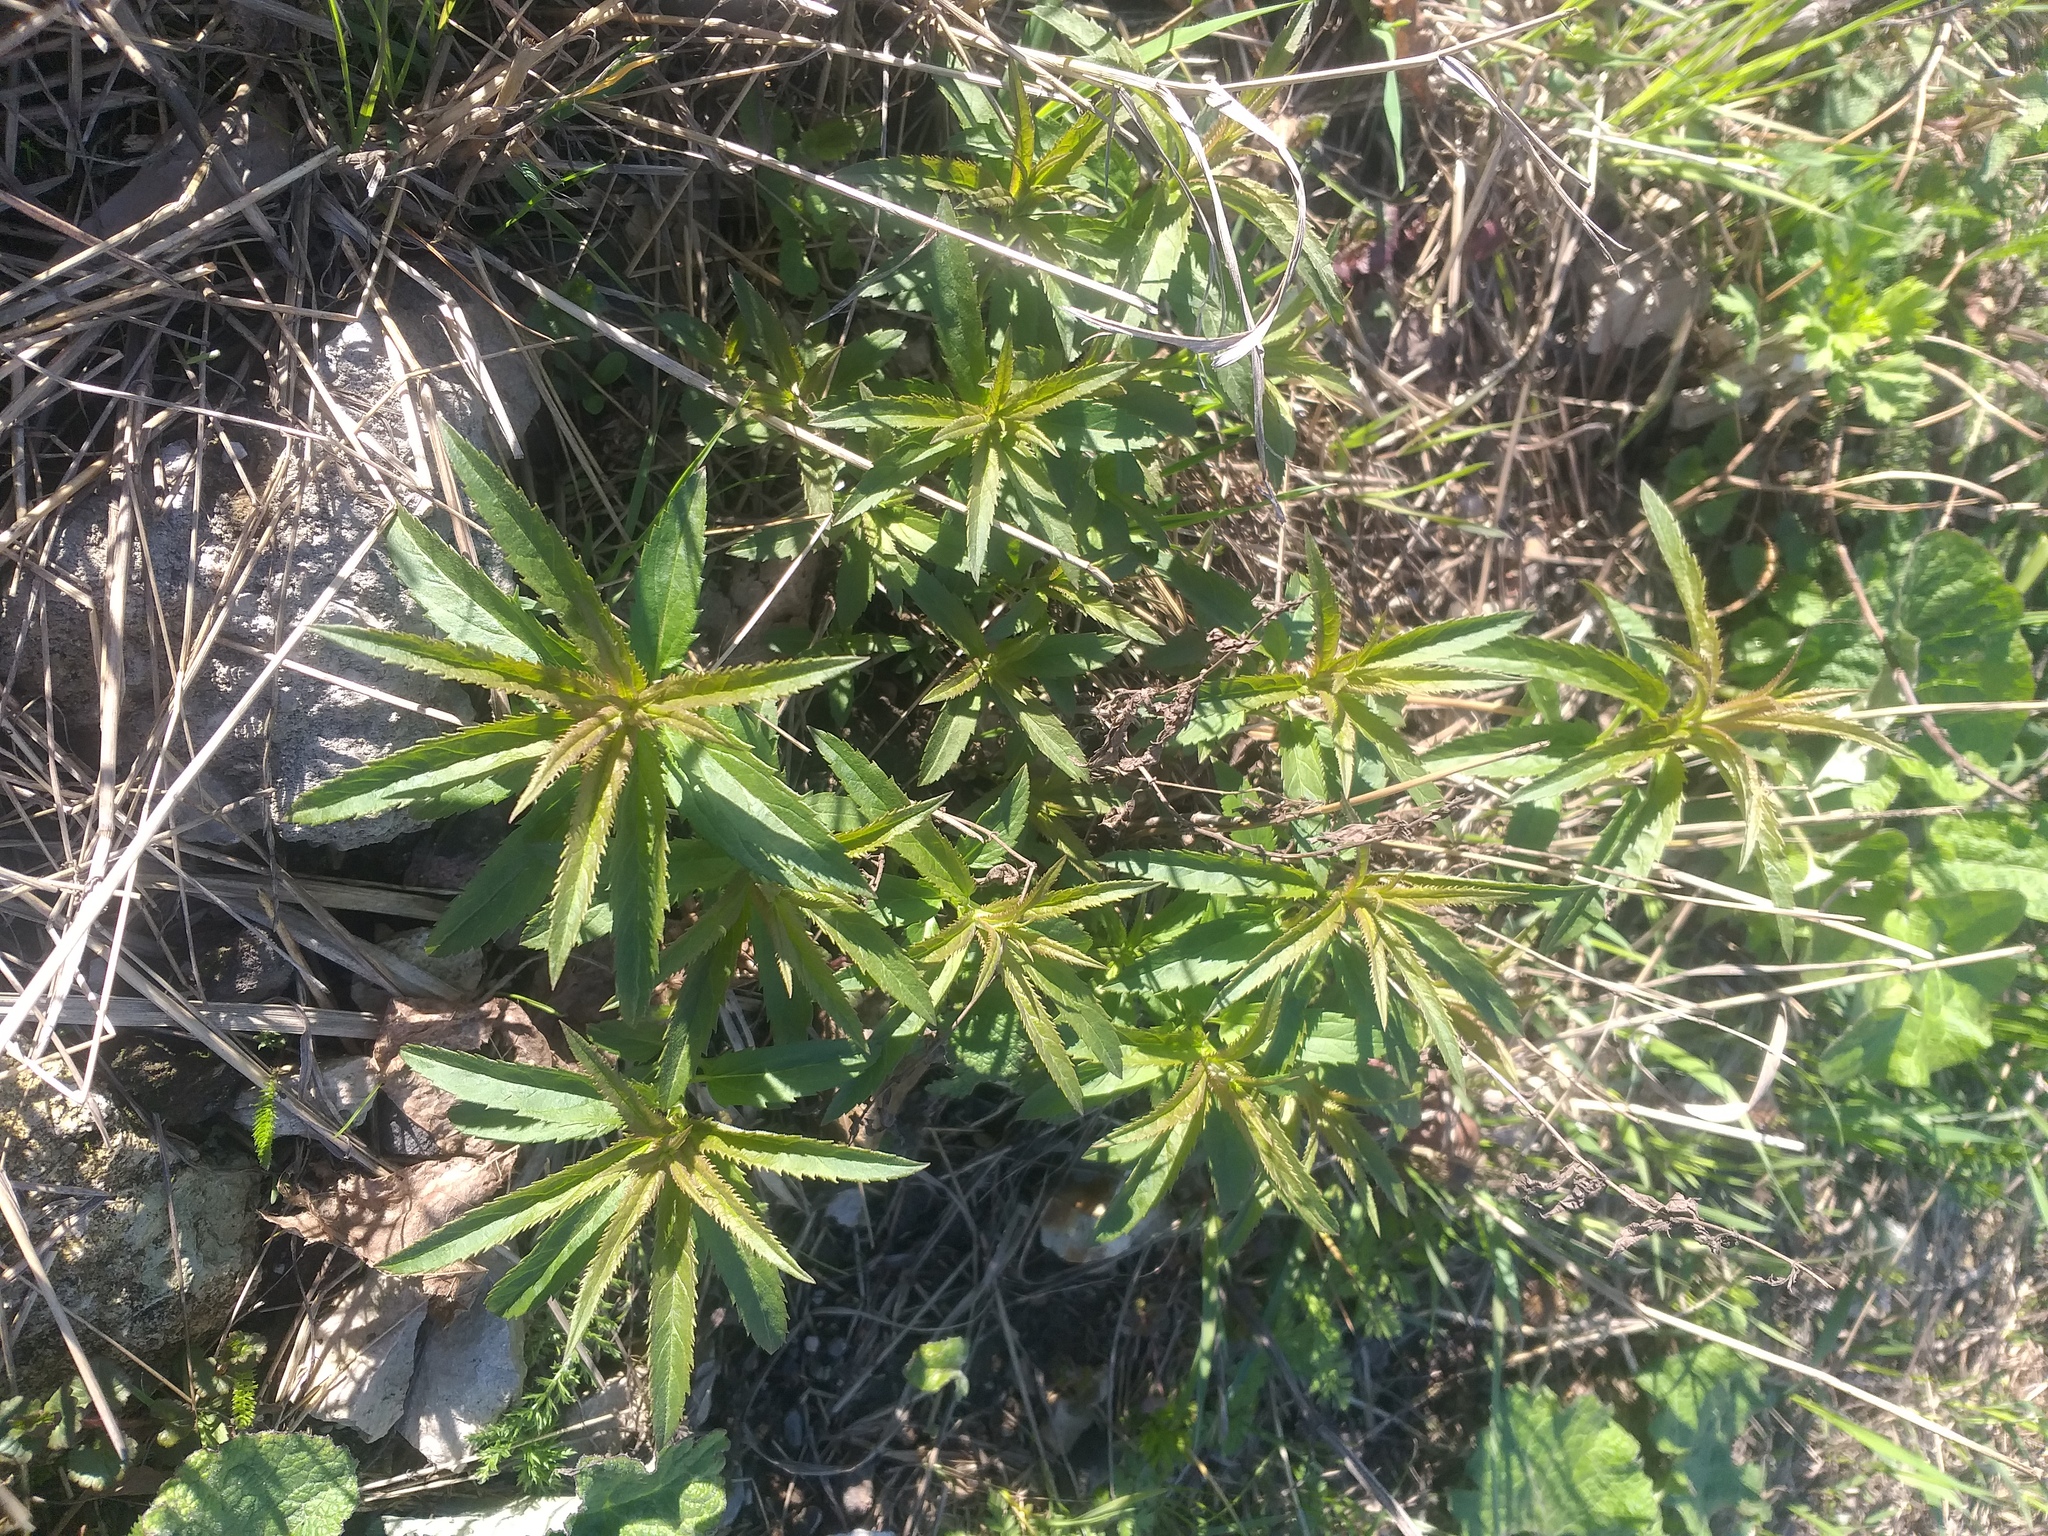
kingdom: Plantae
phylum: Tracheophyta
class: Magnoliopsida
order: Lamiales
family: Plantaginaceae
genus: Veronica
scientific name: Veronica longifolia
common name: Garden speedwell
